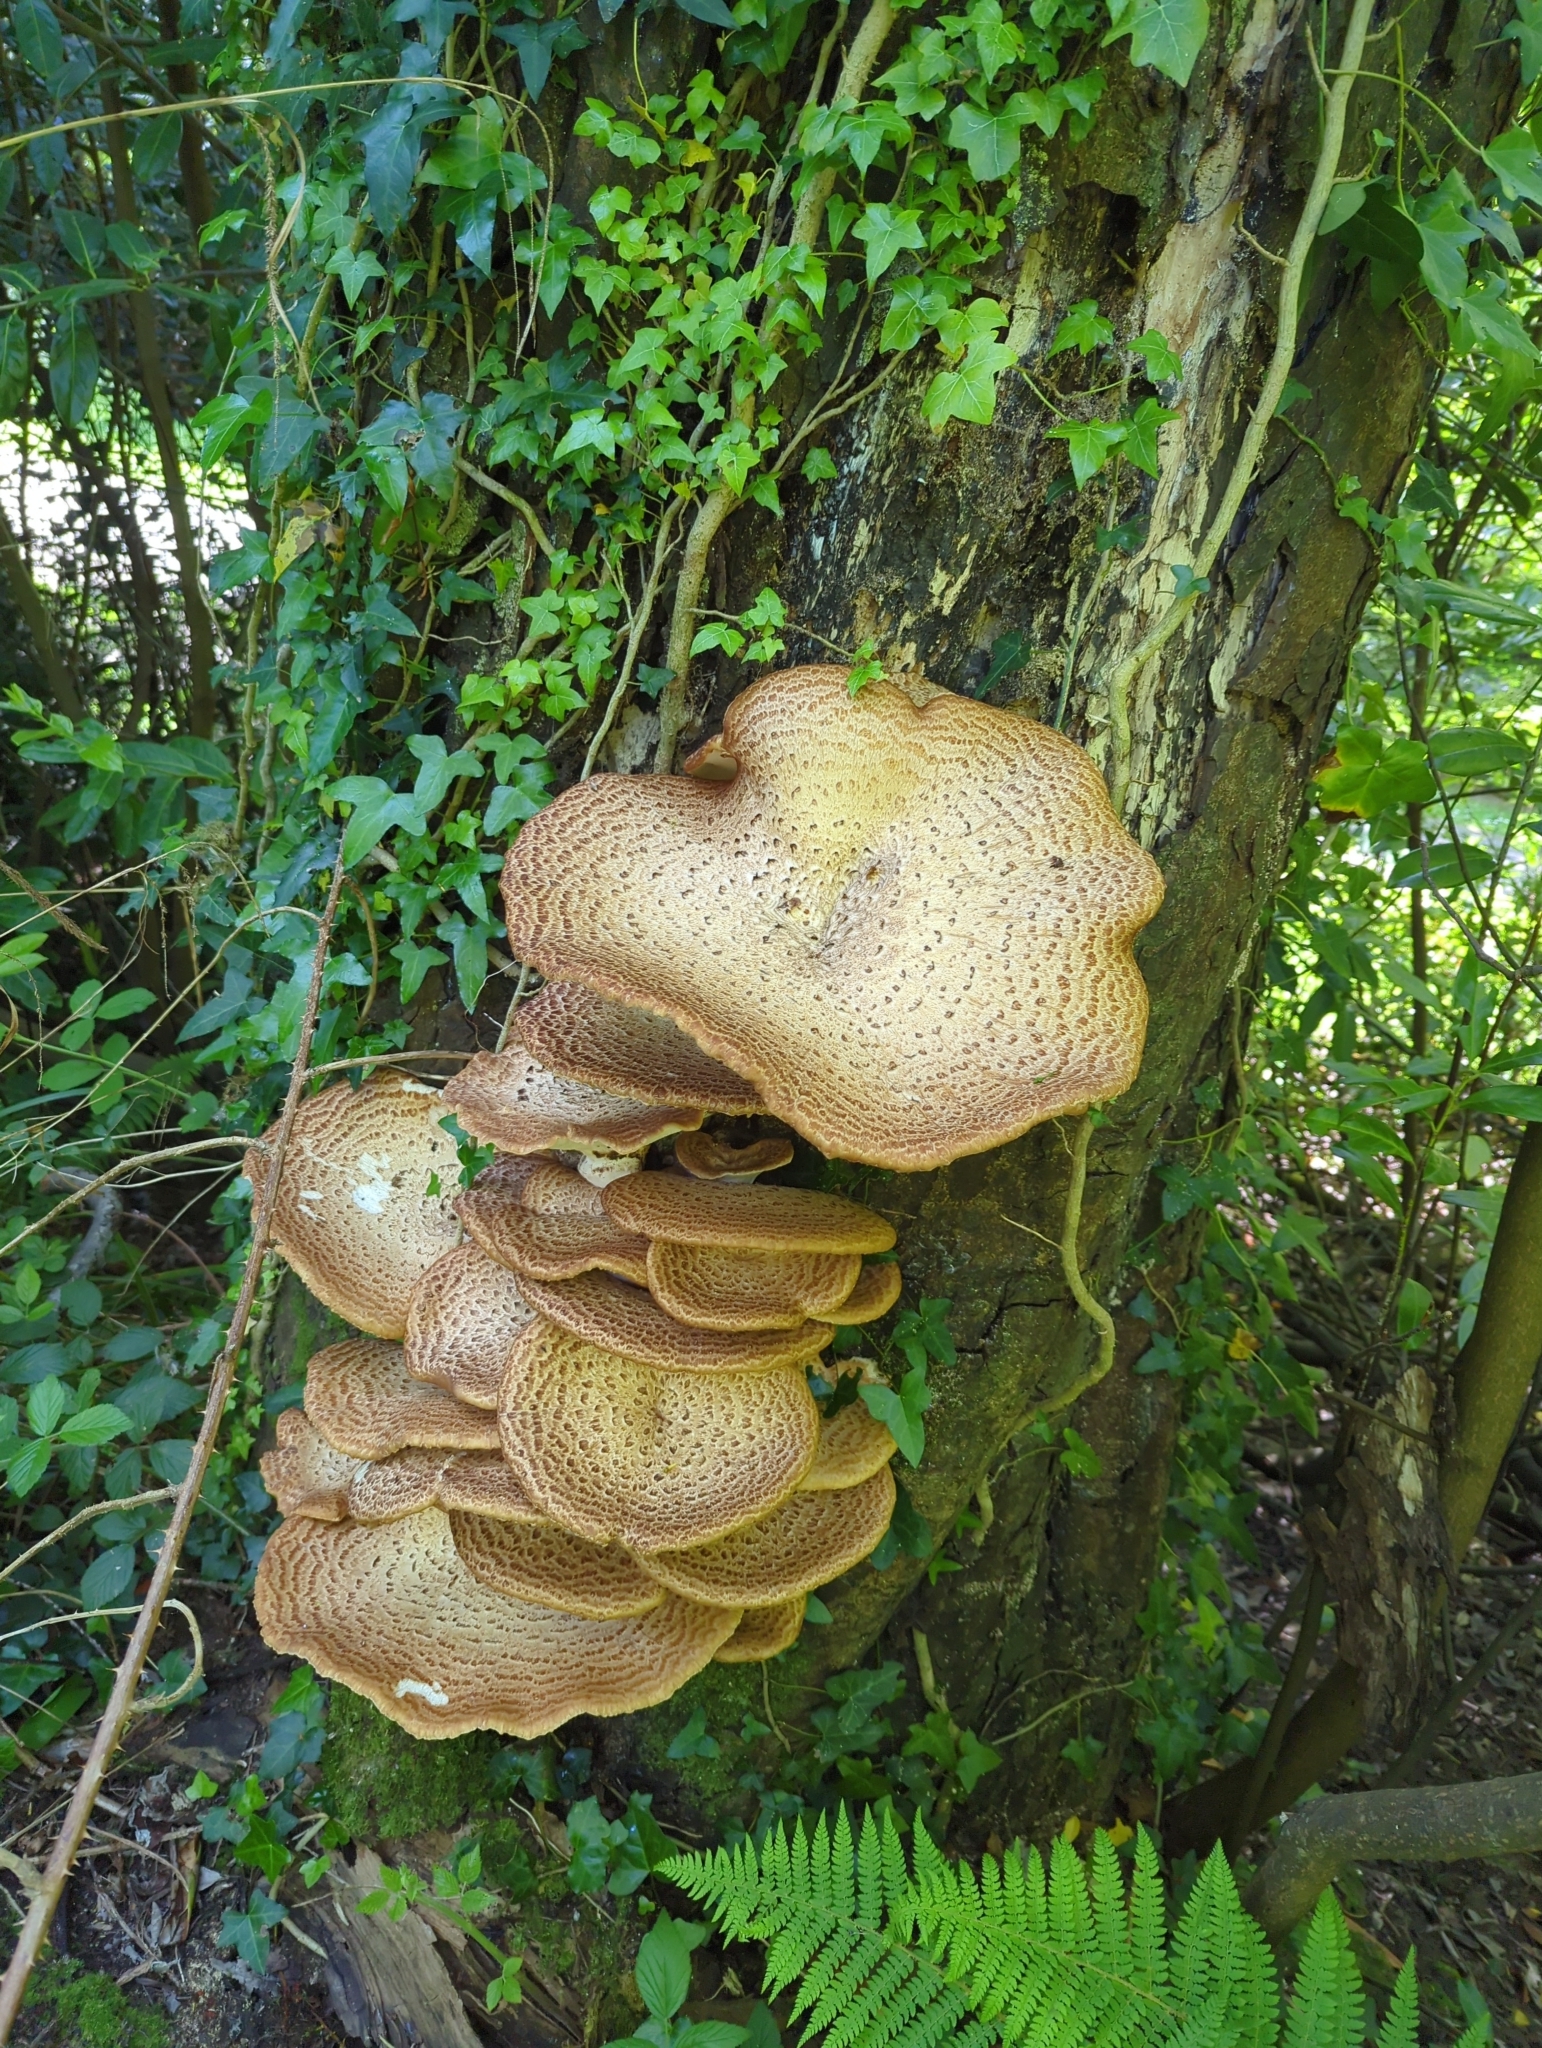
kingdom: Fungi
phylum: Basidiomycota
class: Agaricomycetes
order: Polyporales
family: Polyporaceae
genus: Cerioporus
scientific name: Cerioporus squamosus
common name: Dryad's saddle
